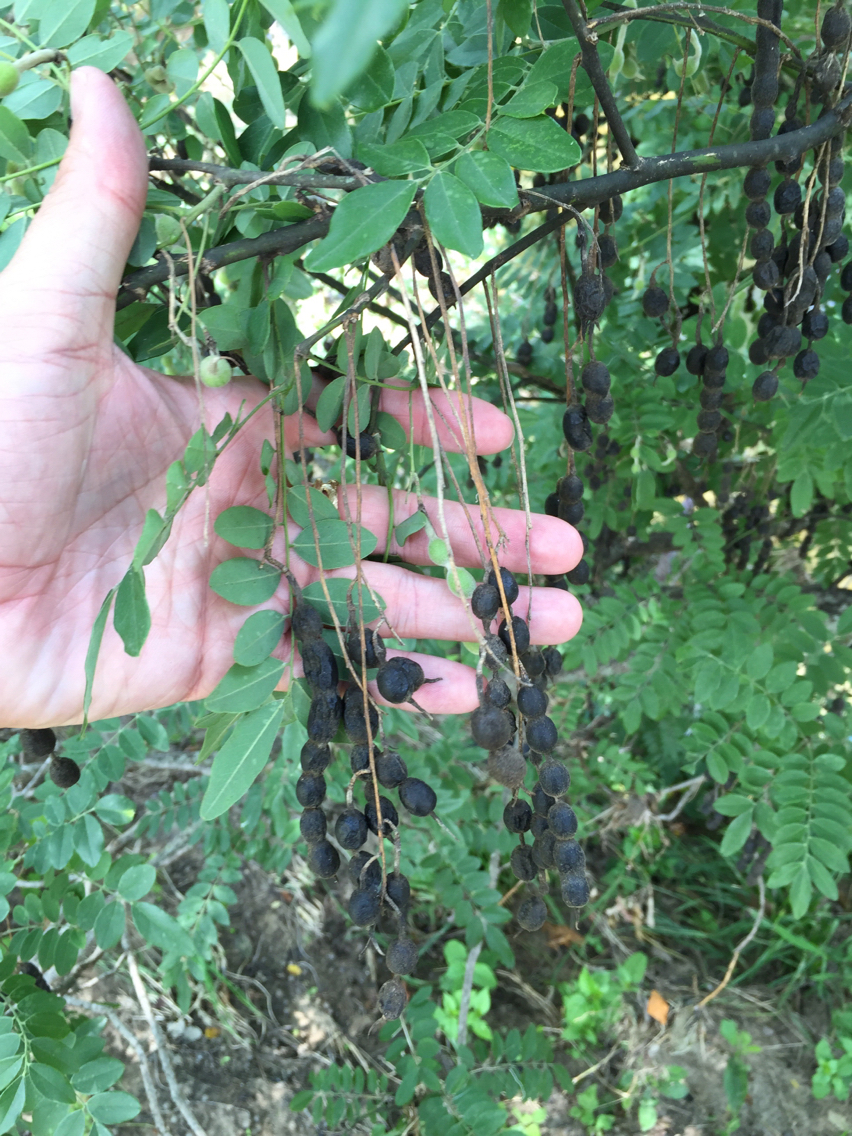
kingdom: Plantae
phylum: Tracheophyta
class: Magnoliopsida
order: Fabales
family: Fabaceae
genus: Styphnolobium
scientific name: Styphnolobium affine
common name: Texas sophora
